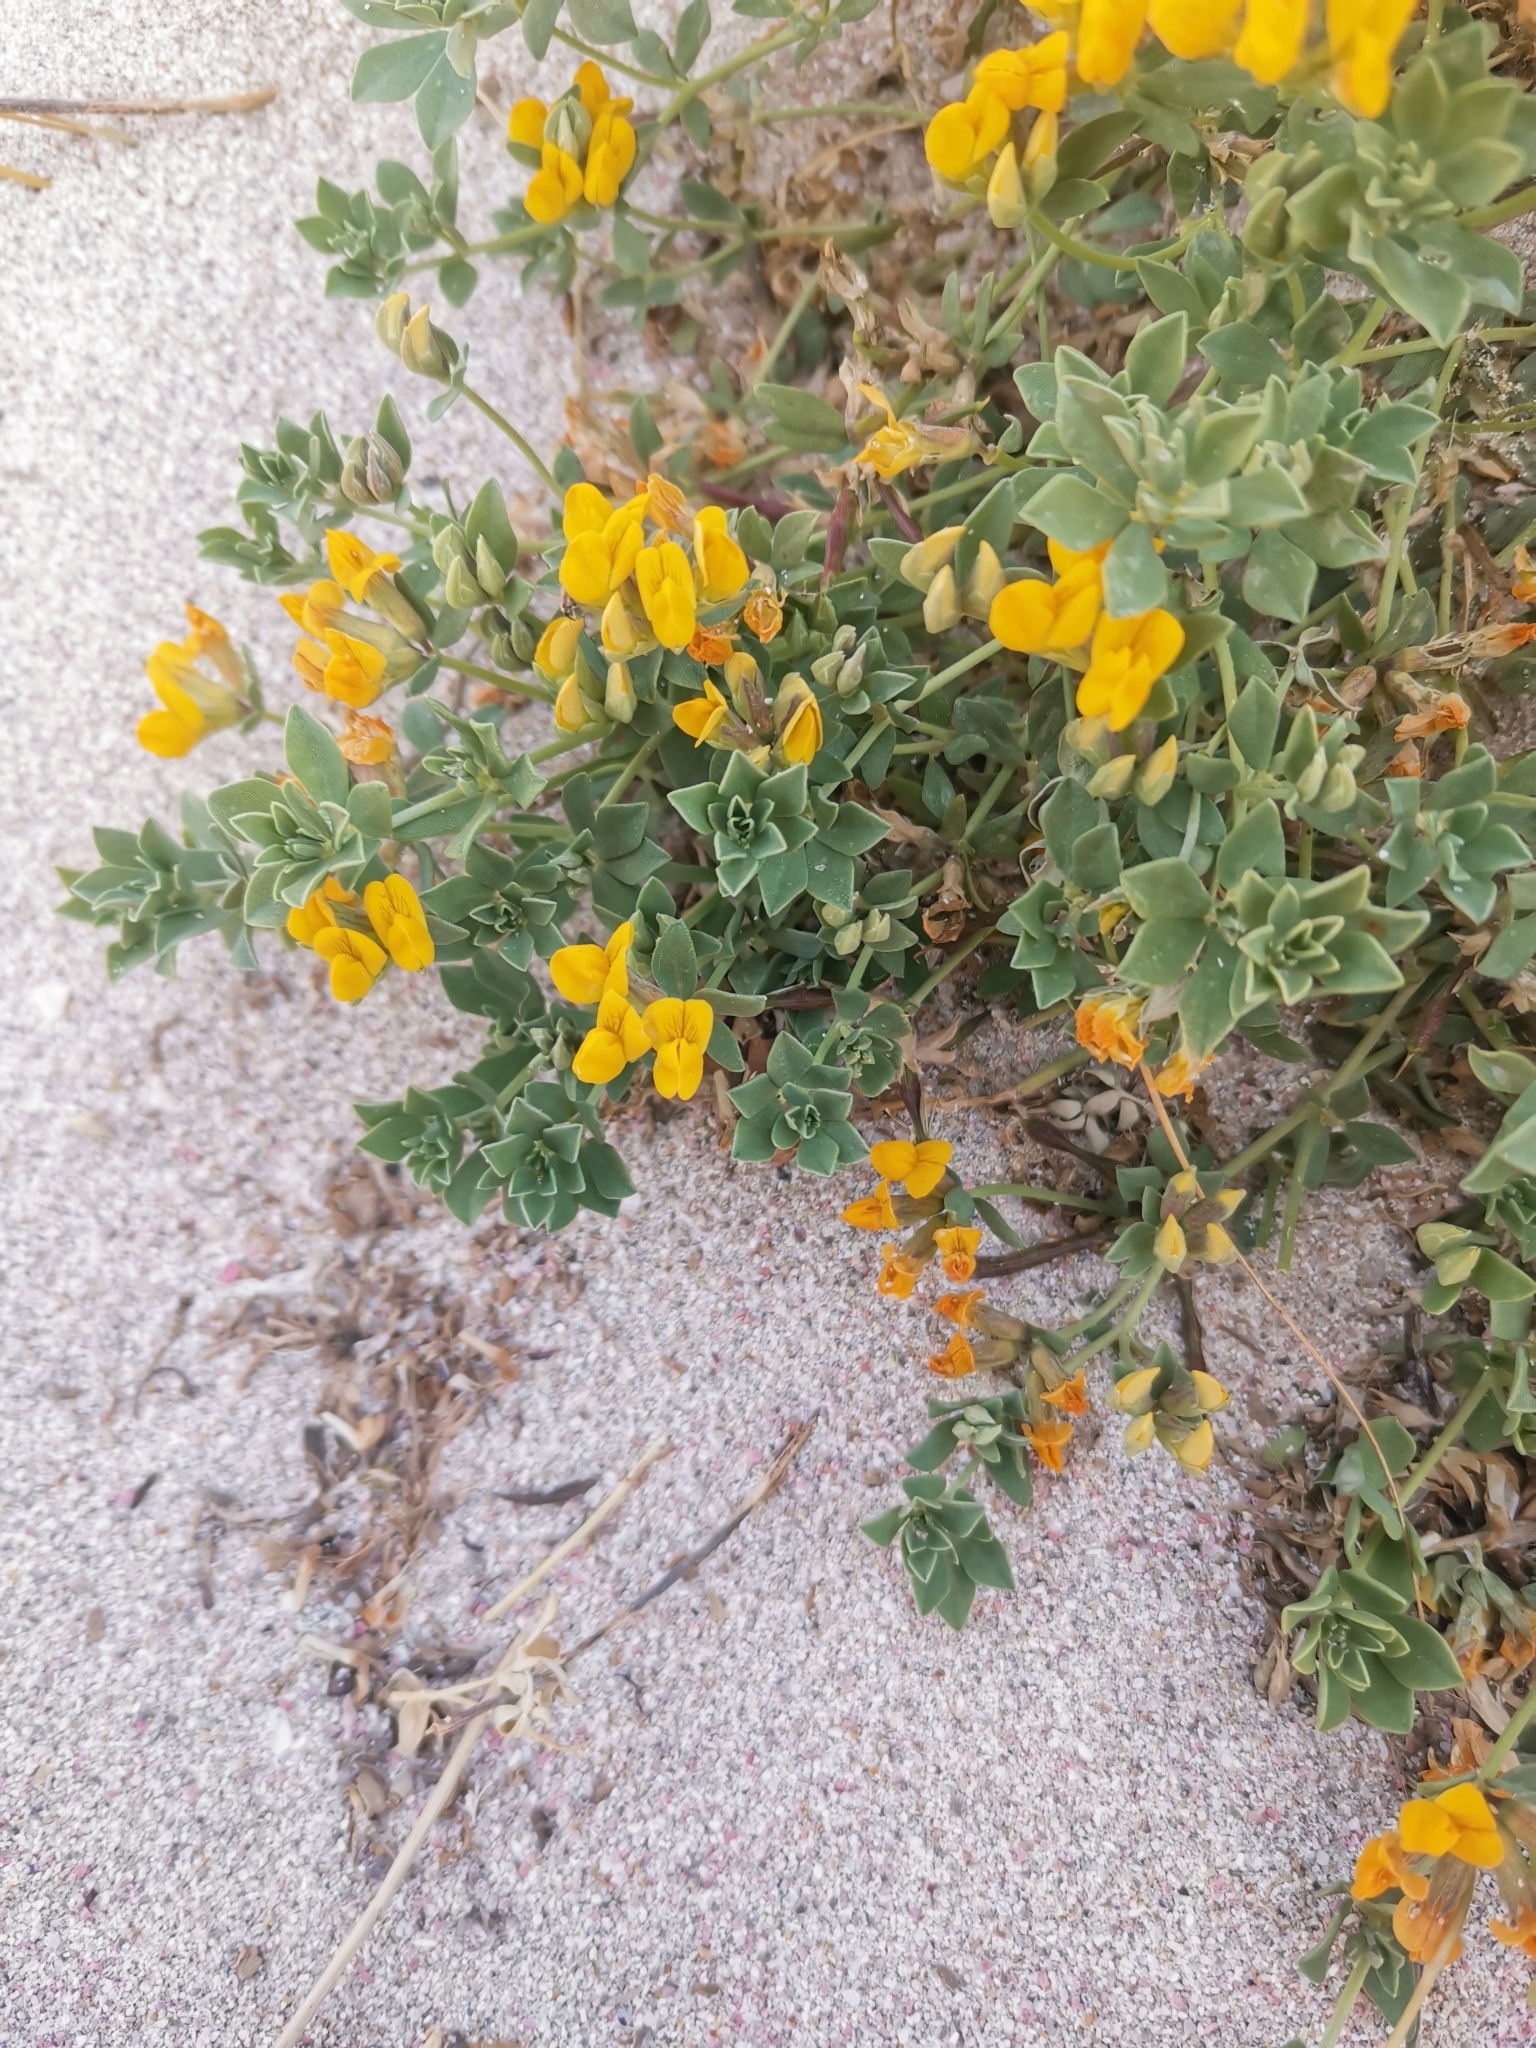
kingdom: Plantae
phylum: Tracheophyta
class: Magnoliopsida
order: Fabales
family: Fabaceae
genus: Lotus
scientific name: Lotus cytisoides
